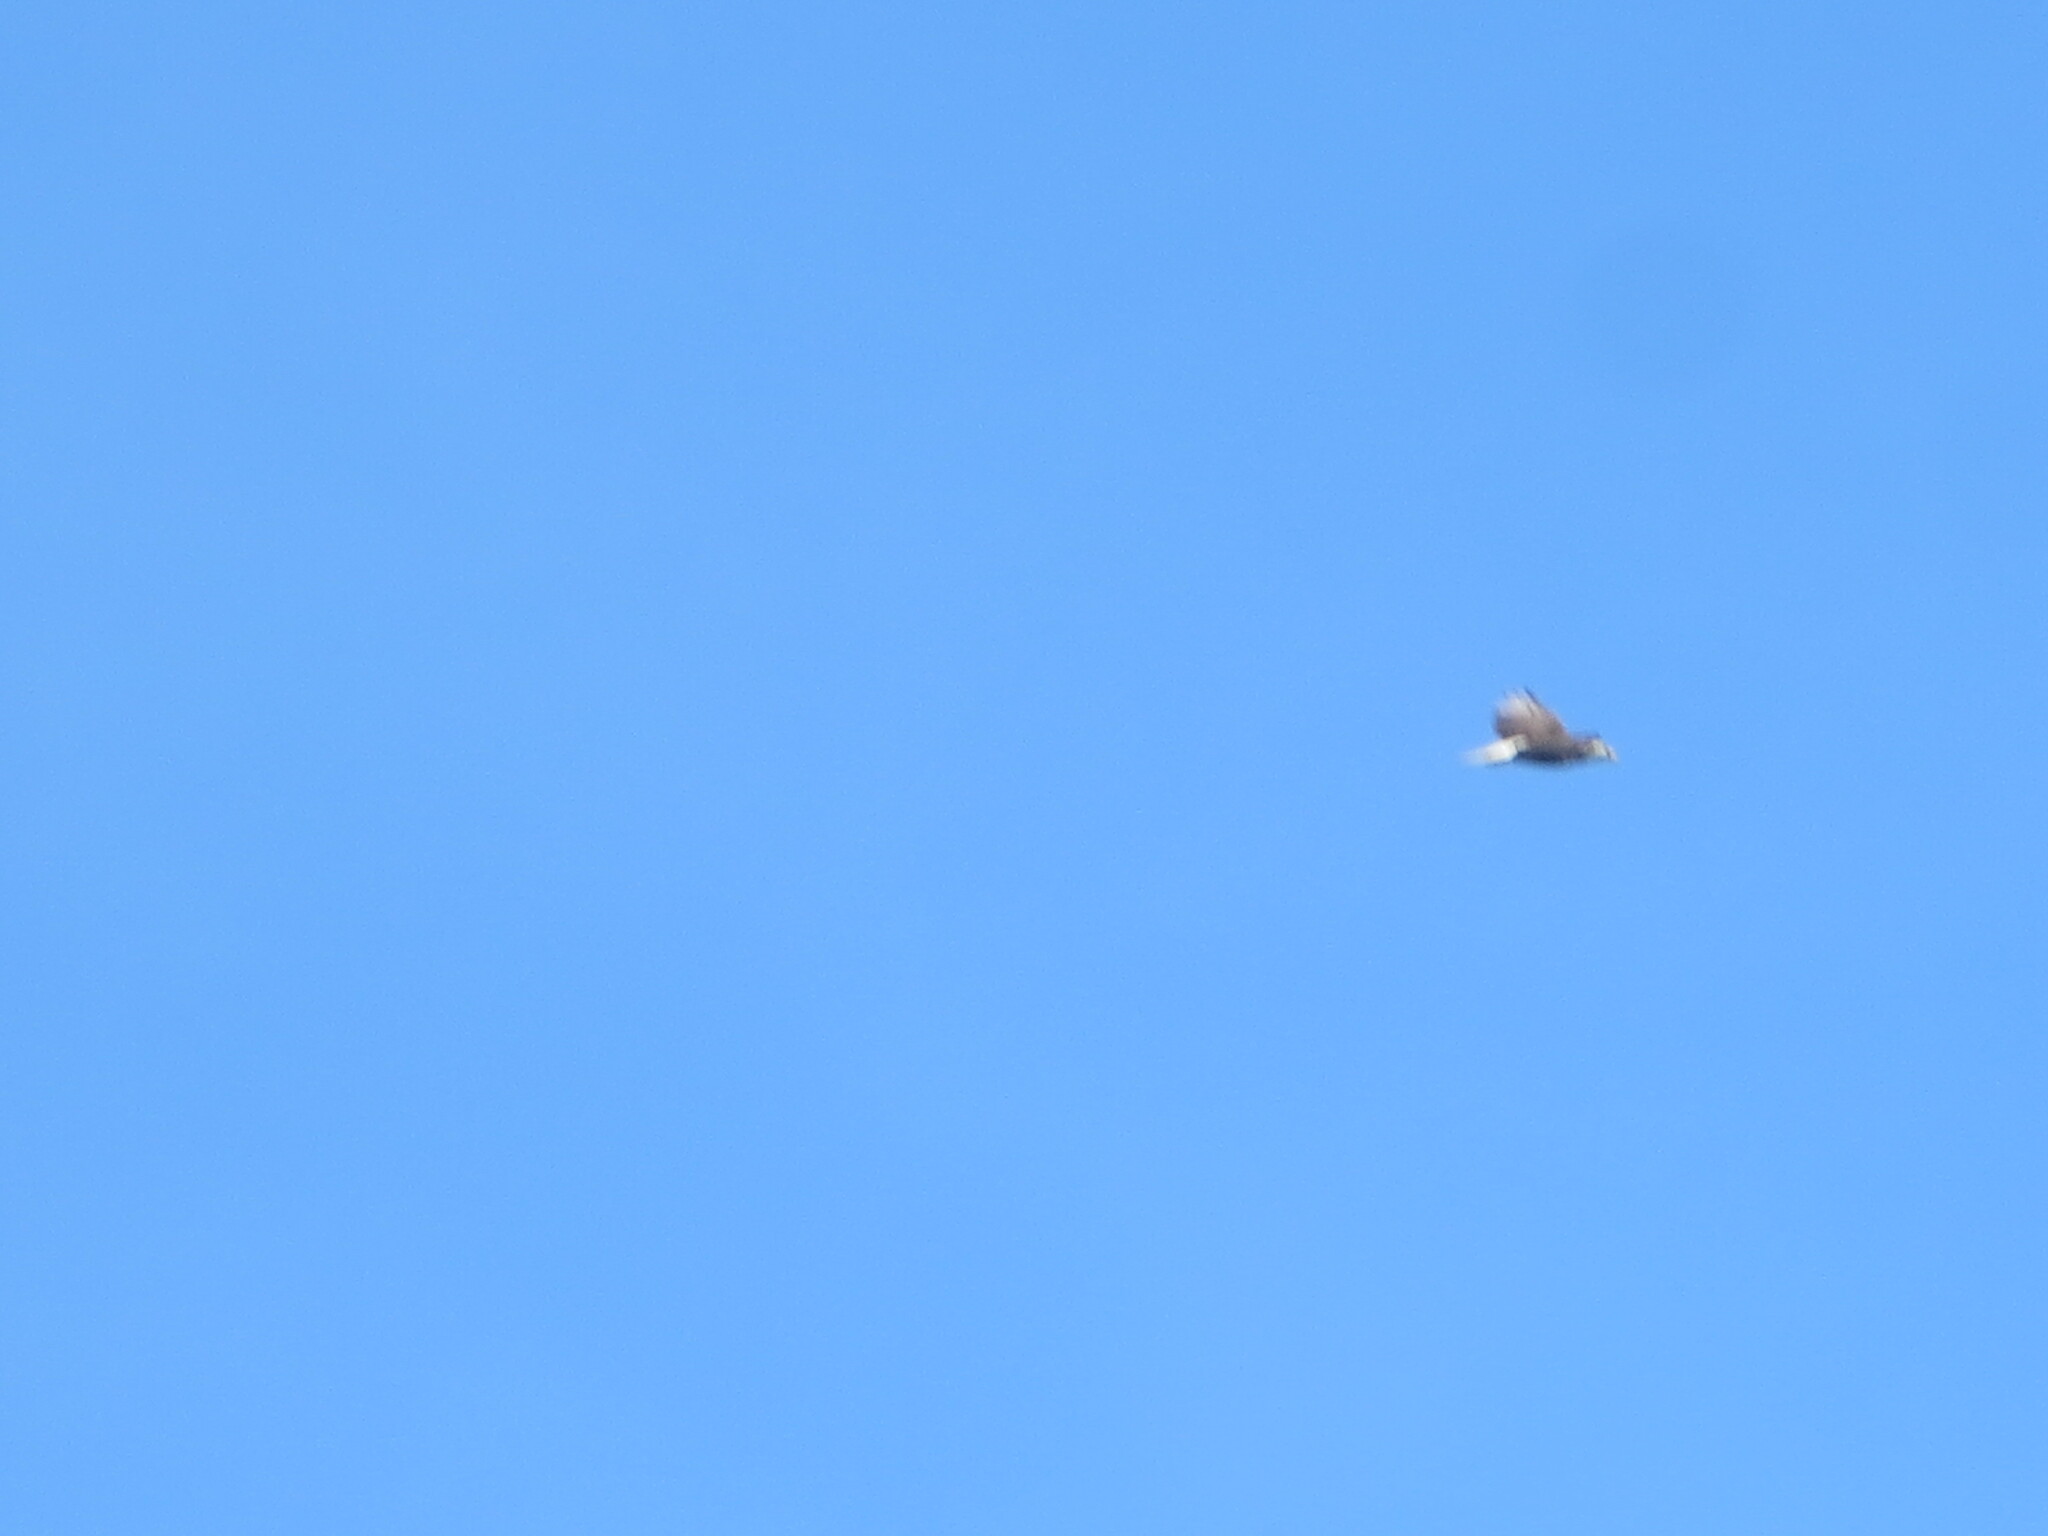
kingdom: Animalia
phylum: Chordata
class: Aves
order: Accipitriformes
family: Accipitridae
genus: Haliaeetus
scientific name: Haliaeetus leucocephalus
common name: Bald eagle
